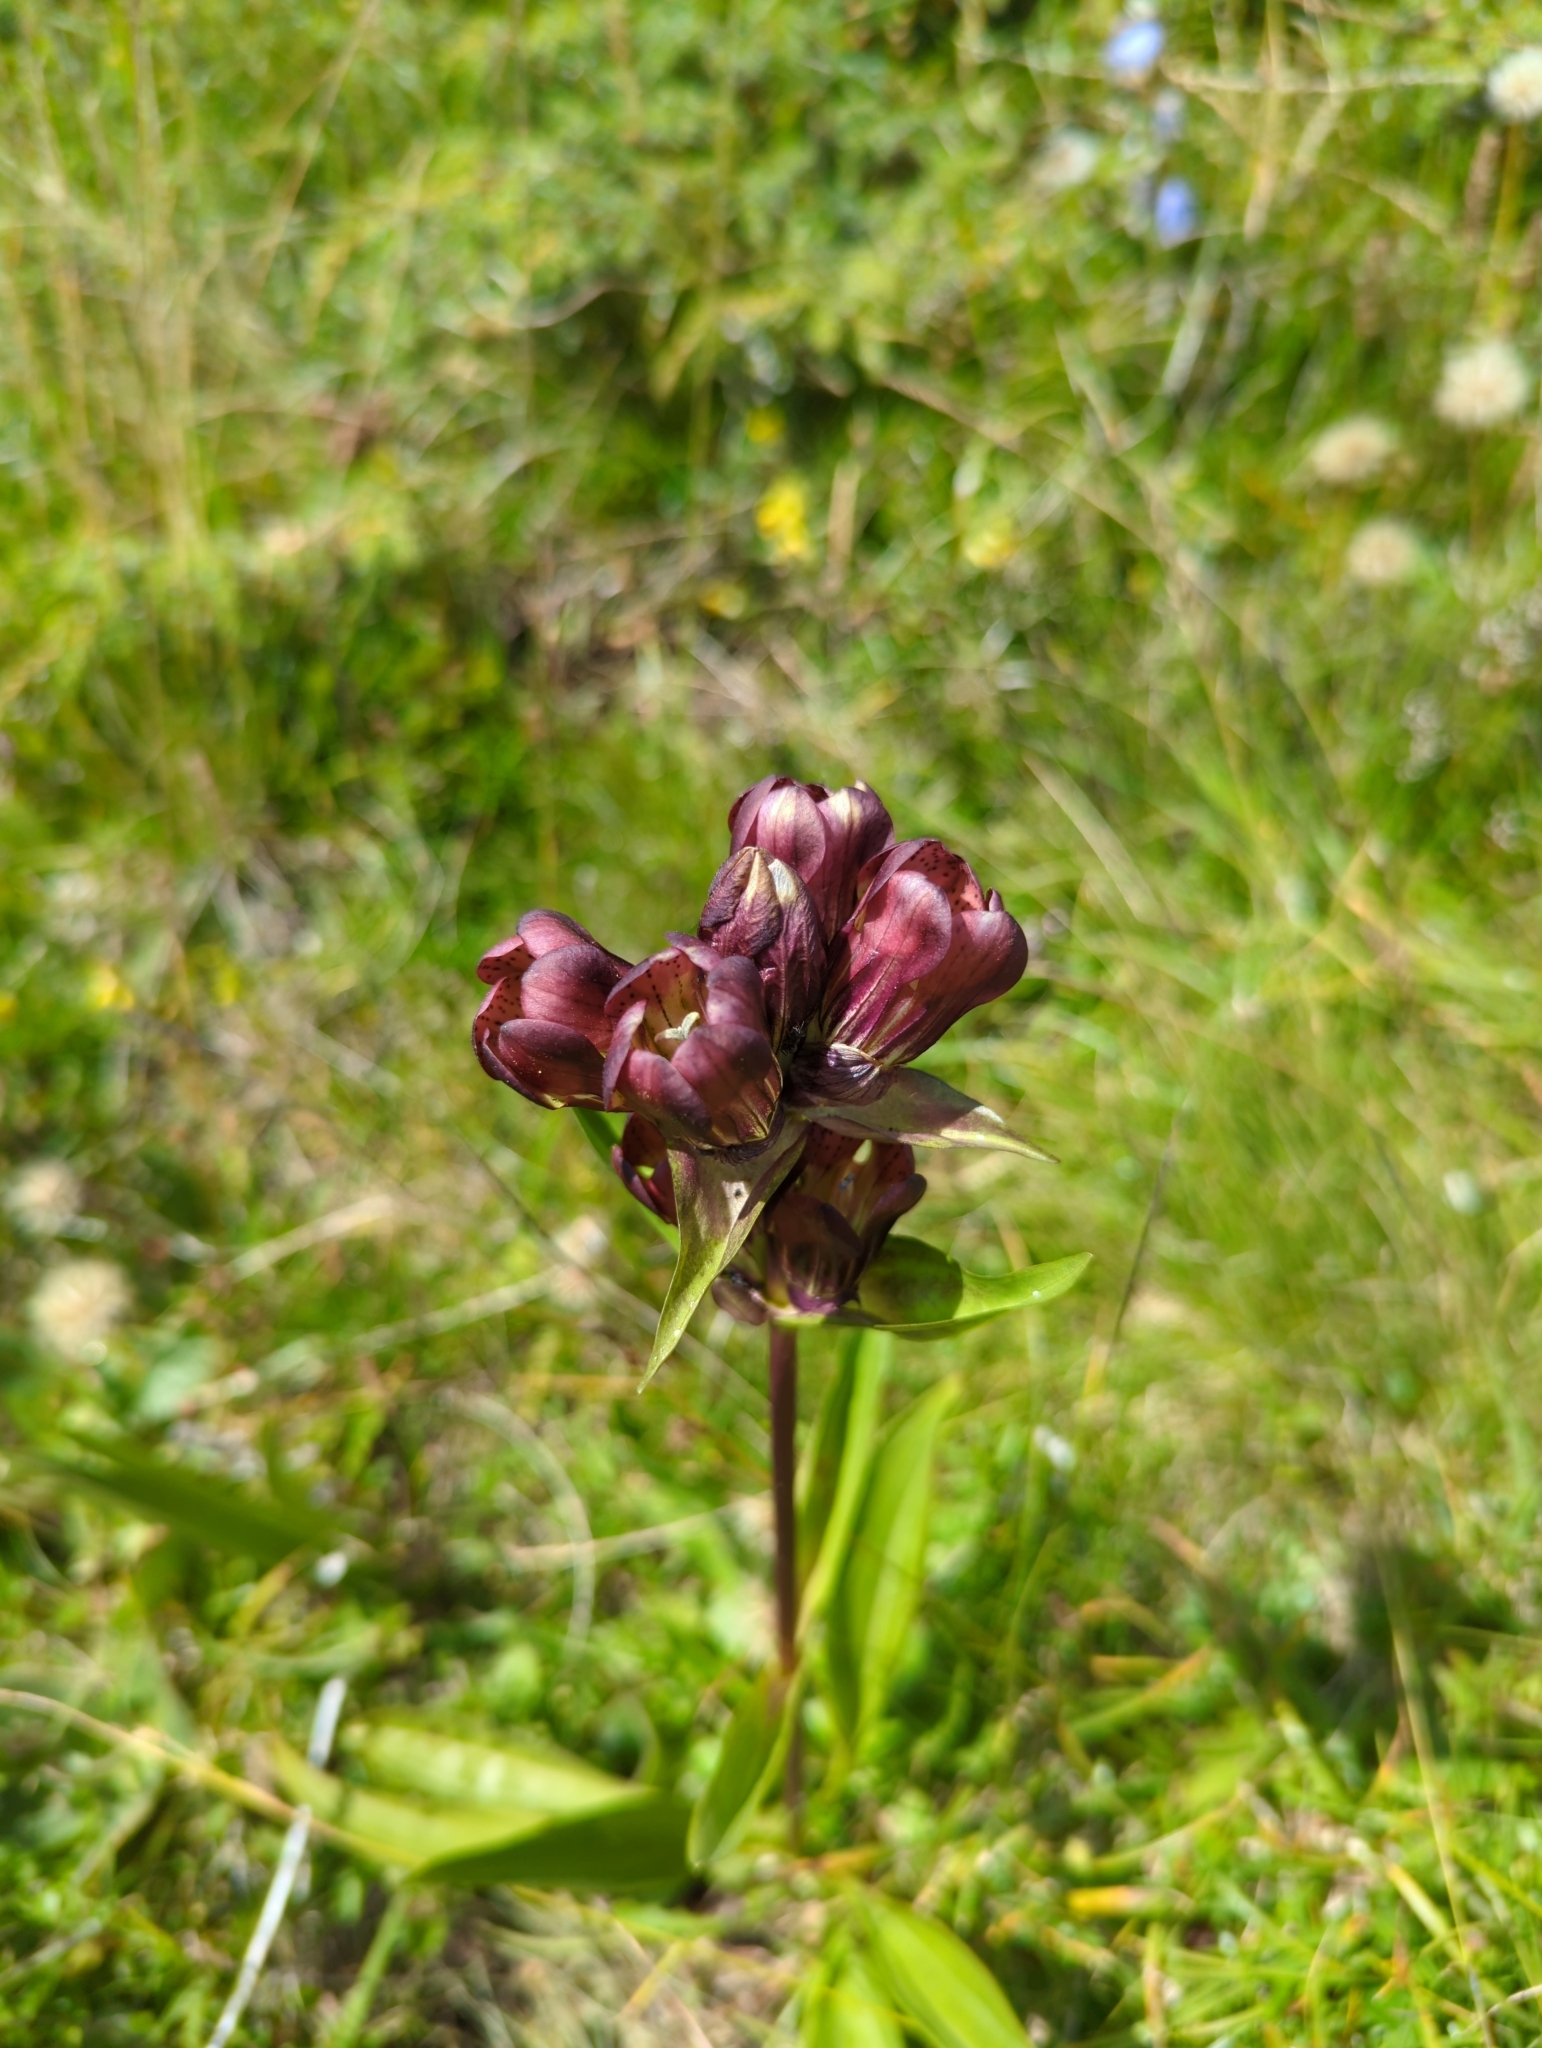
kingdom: Plantae
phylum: Tracheophyta
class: Magnoliopsida
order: Gentianales
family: Gentianaceae
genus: Gentiana
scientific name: Gentiana purpurea
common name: Purple gentian
